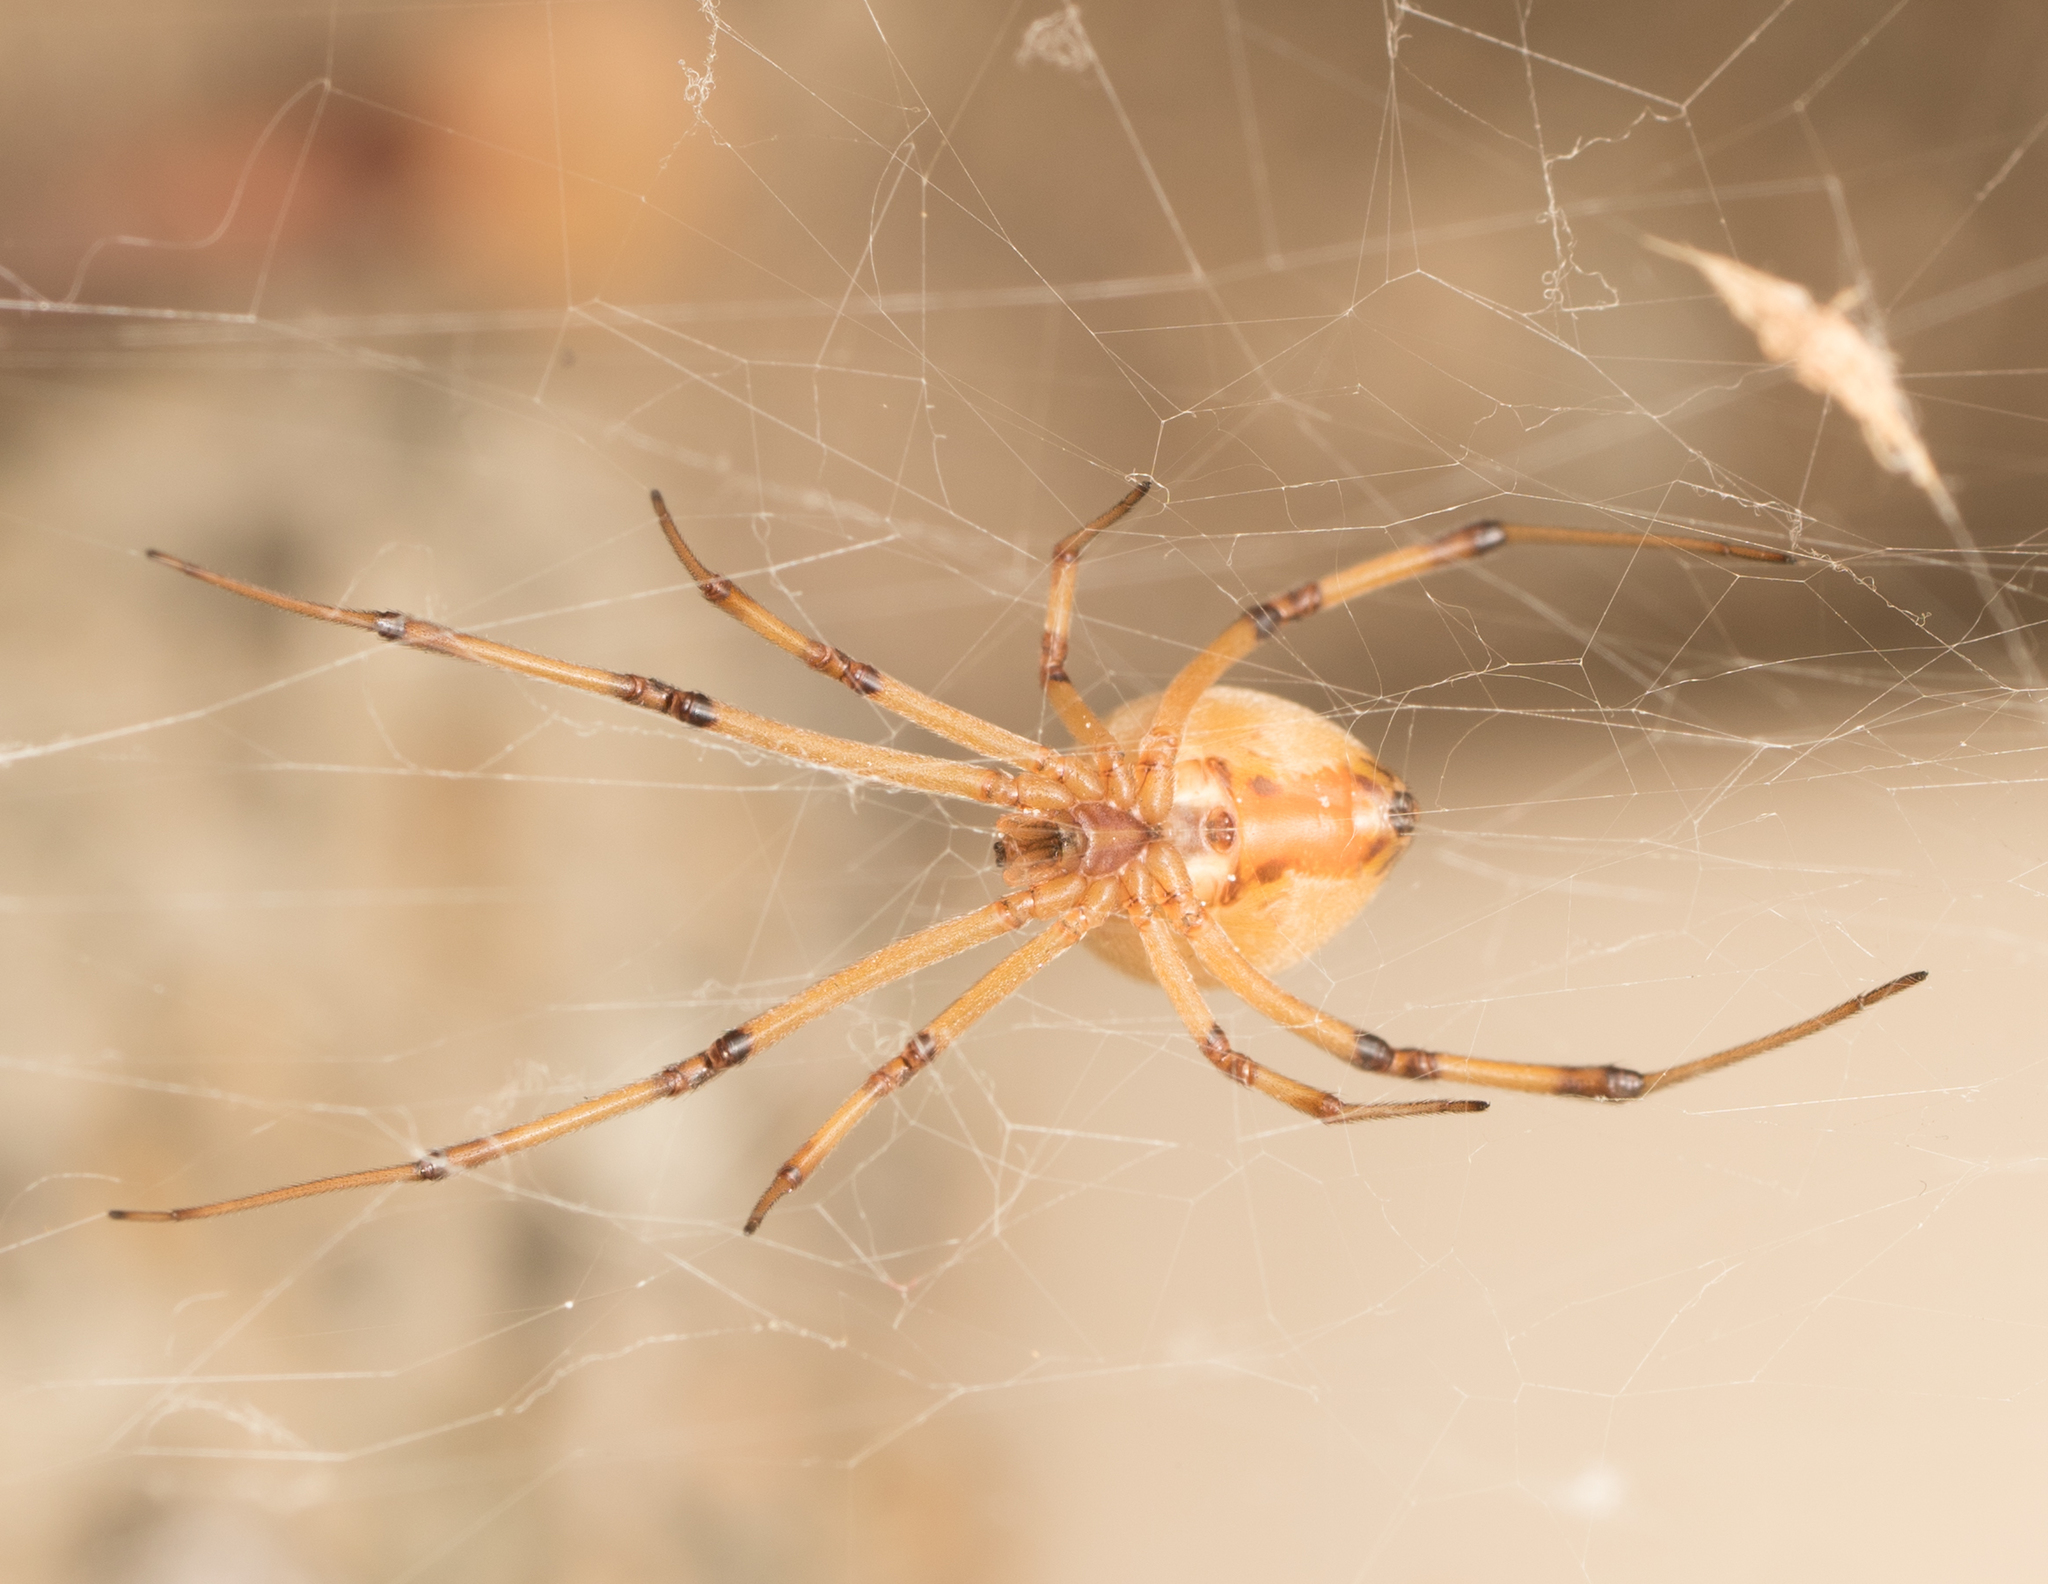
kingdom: Animalia
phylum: Arthropoda
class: Arachnida
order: Araneae
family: Theridiidae
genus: Latrodectus
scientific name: Latrodectus geometricus
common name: Brown widow spider
